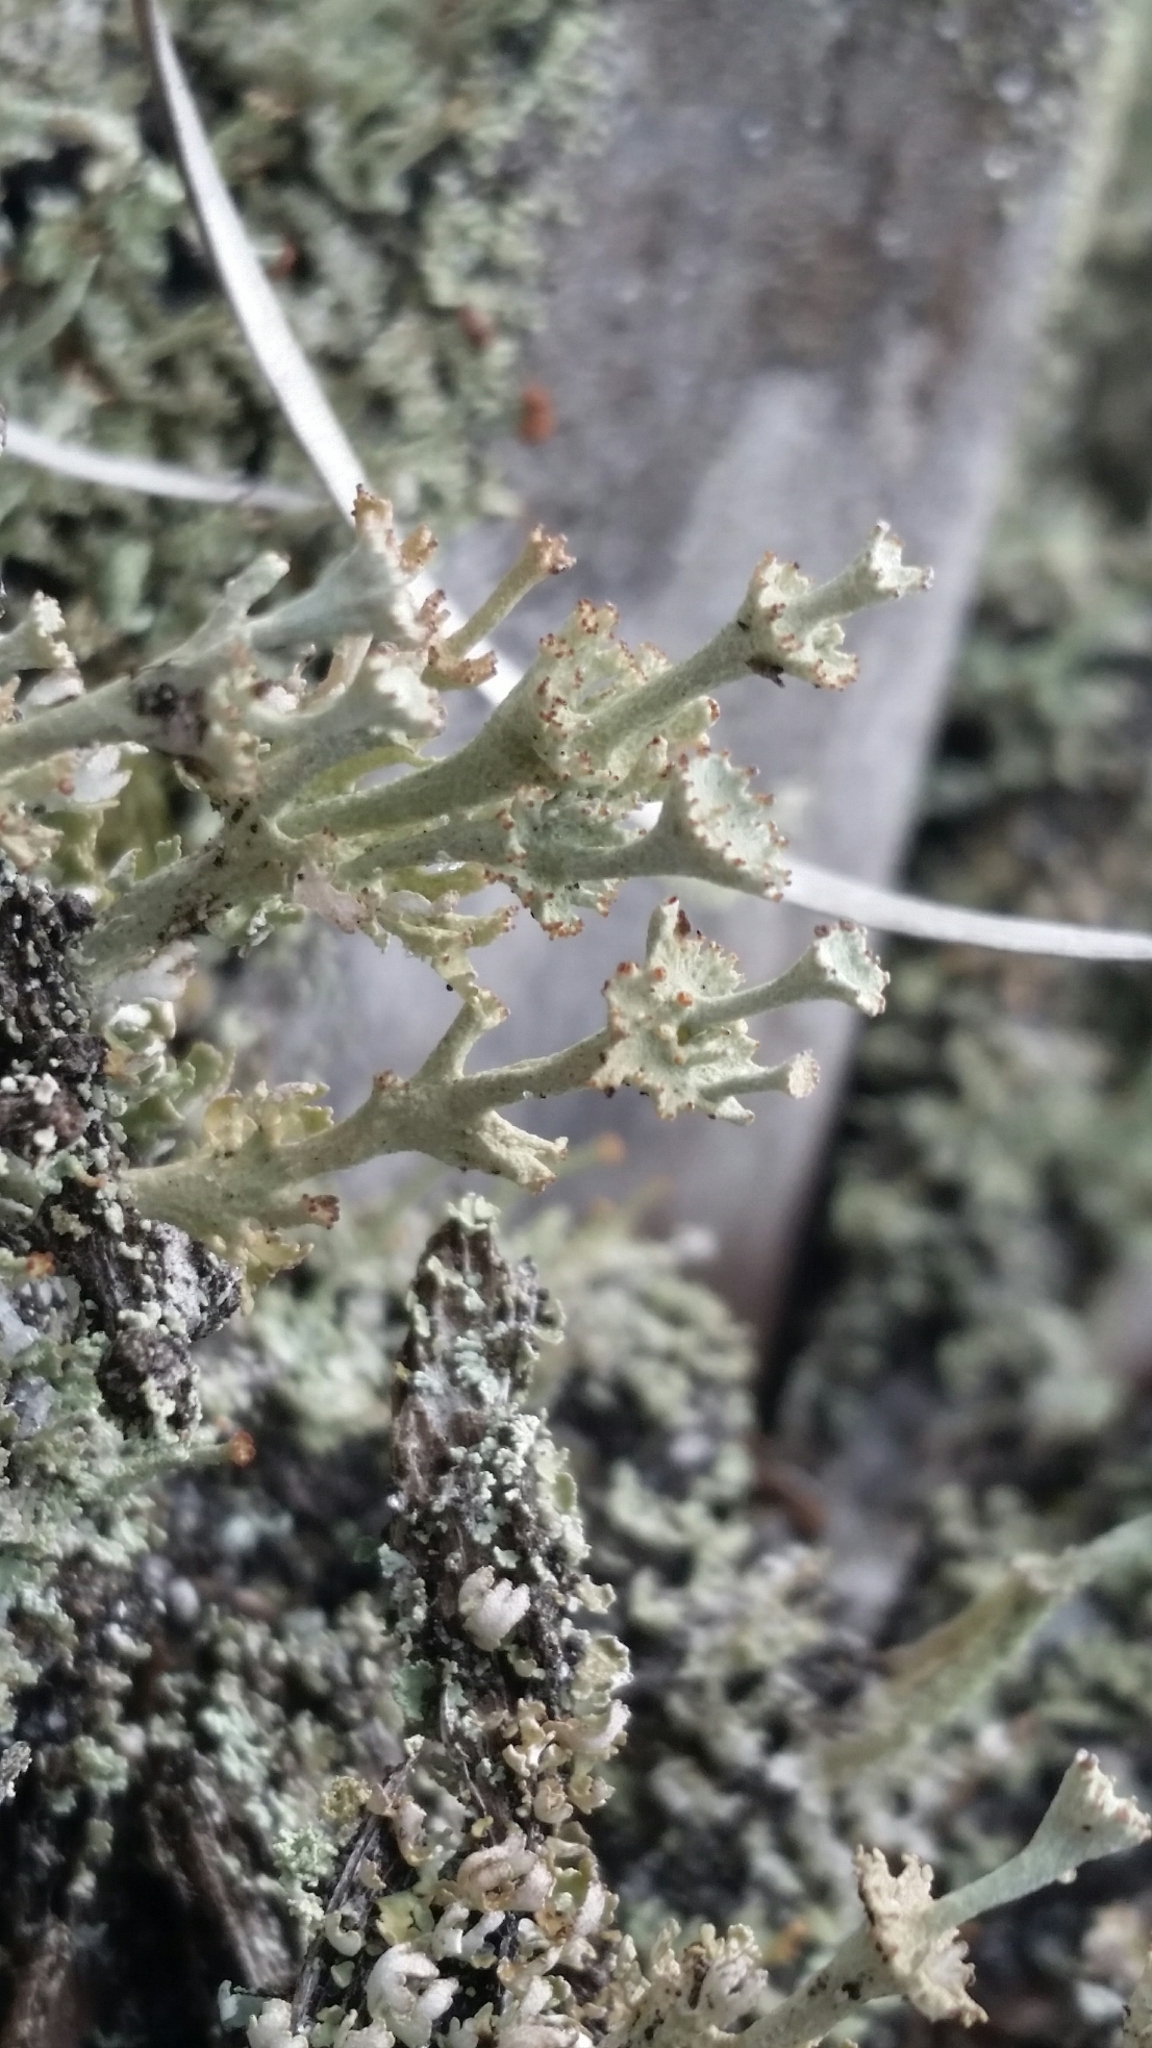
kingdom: Fungi
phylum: Ascomycota
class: Lecanoromycetes
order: Lecanorales
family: Cladoniaceae
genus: Cladonia
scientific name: Cladonia rappii
